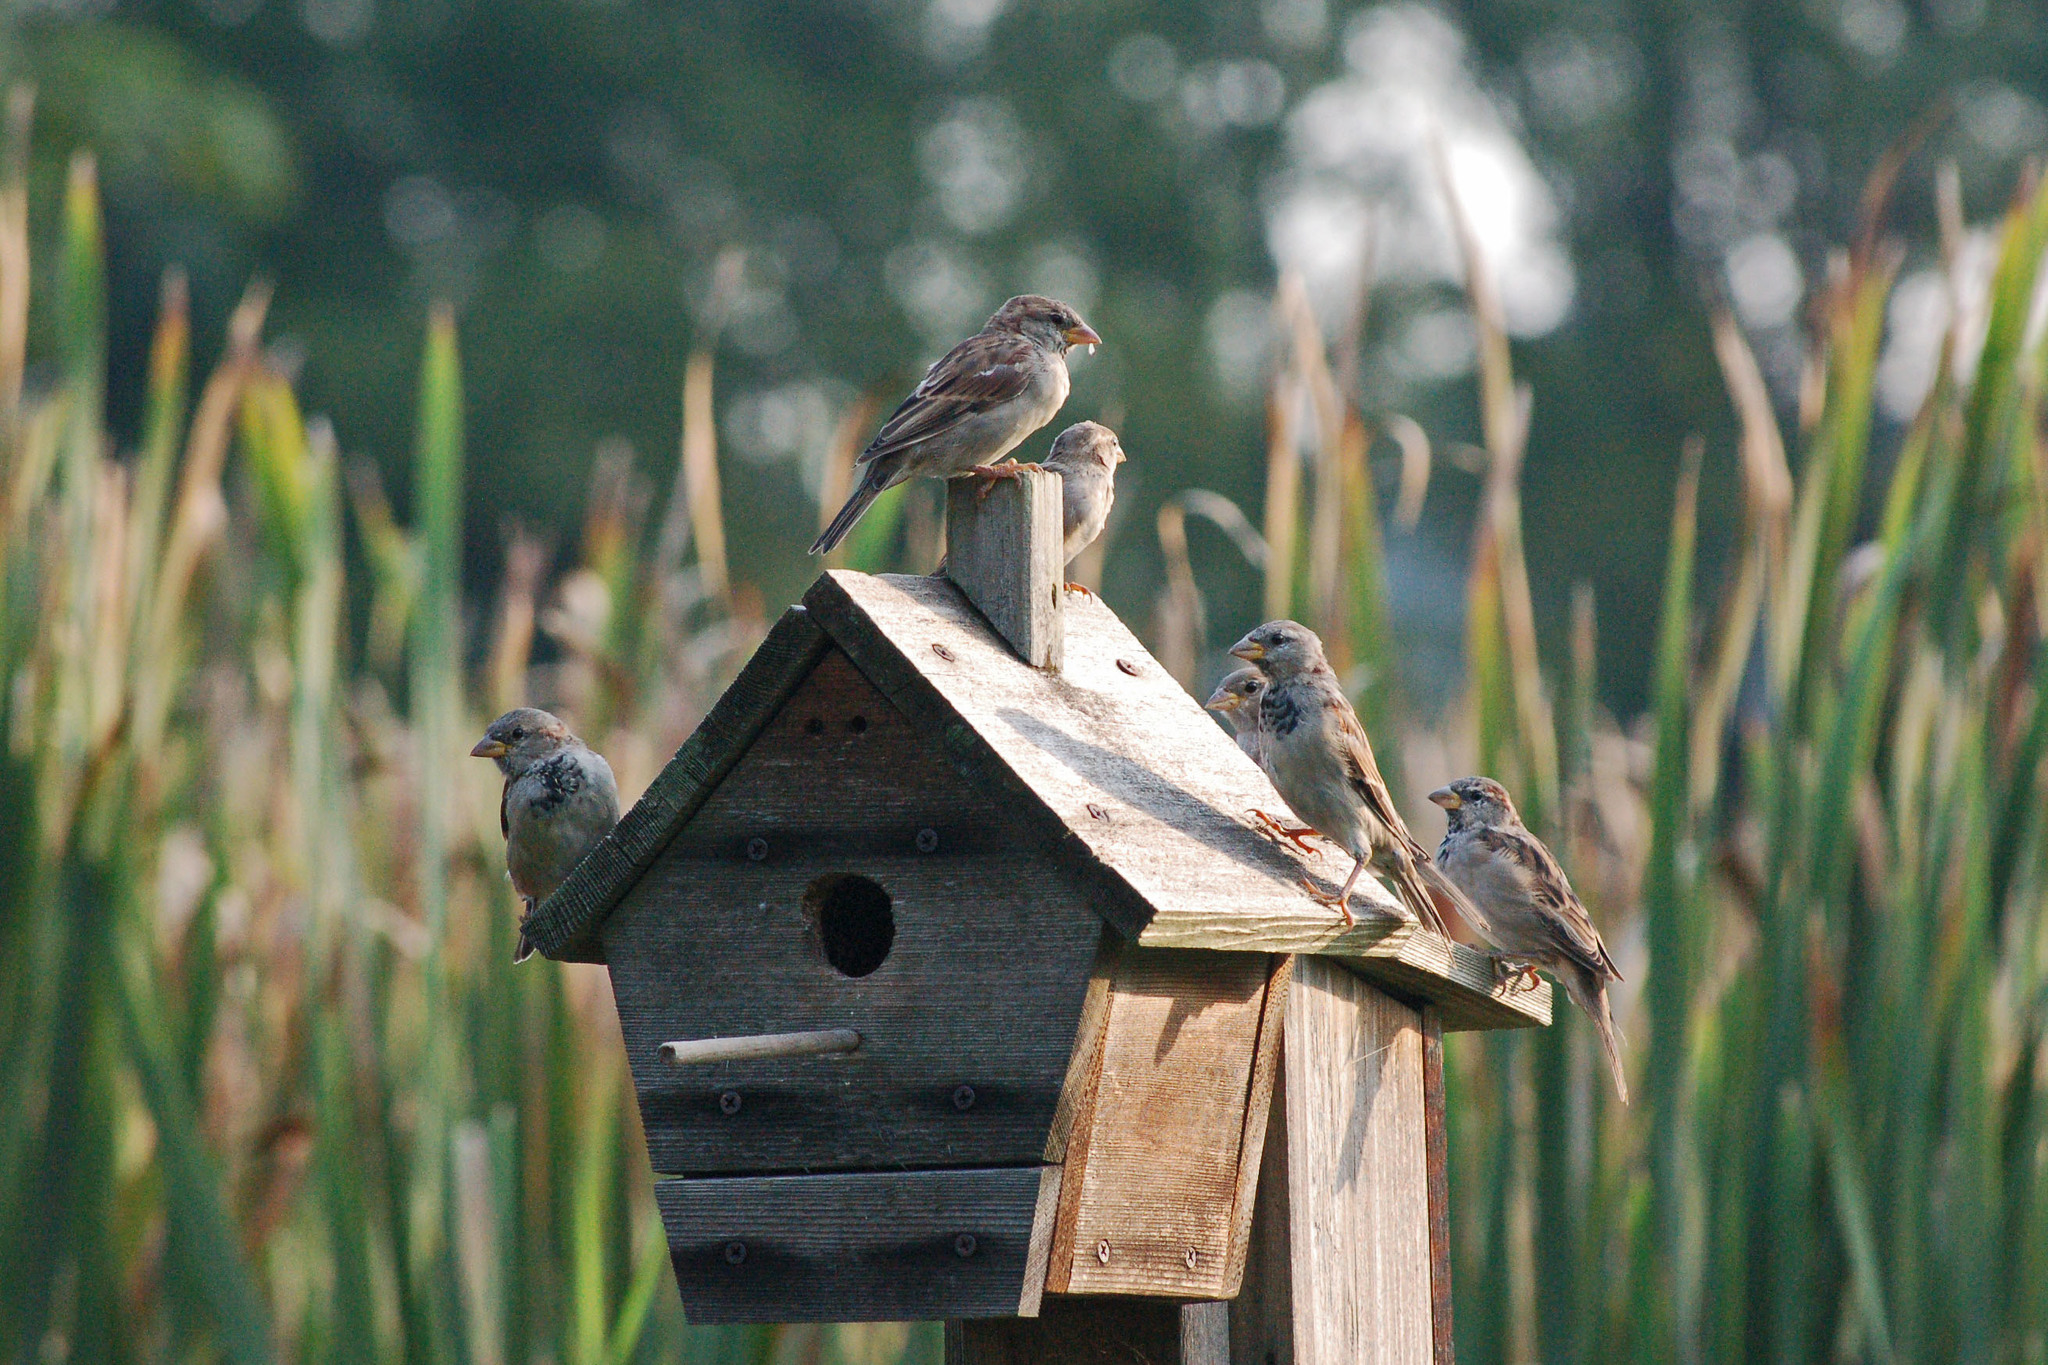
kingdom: Animalia
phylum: Chordata
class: Aves
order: Passeriformes
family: Passeridae
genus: Passer
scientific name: Passer domesticus
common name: House sparrow
